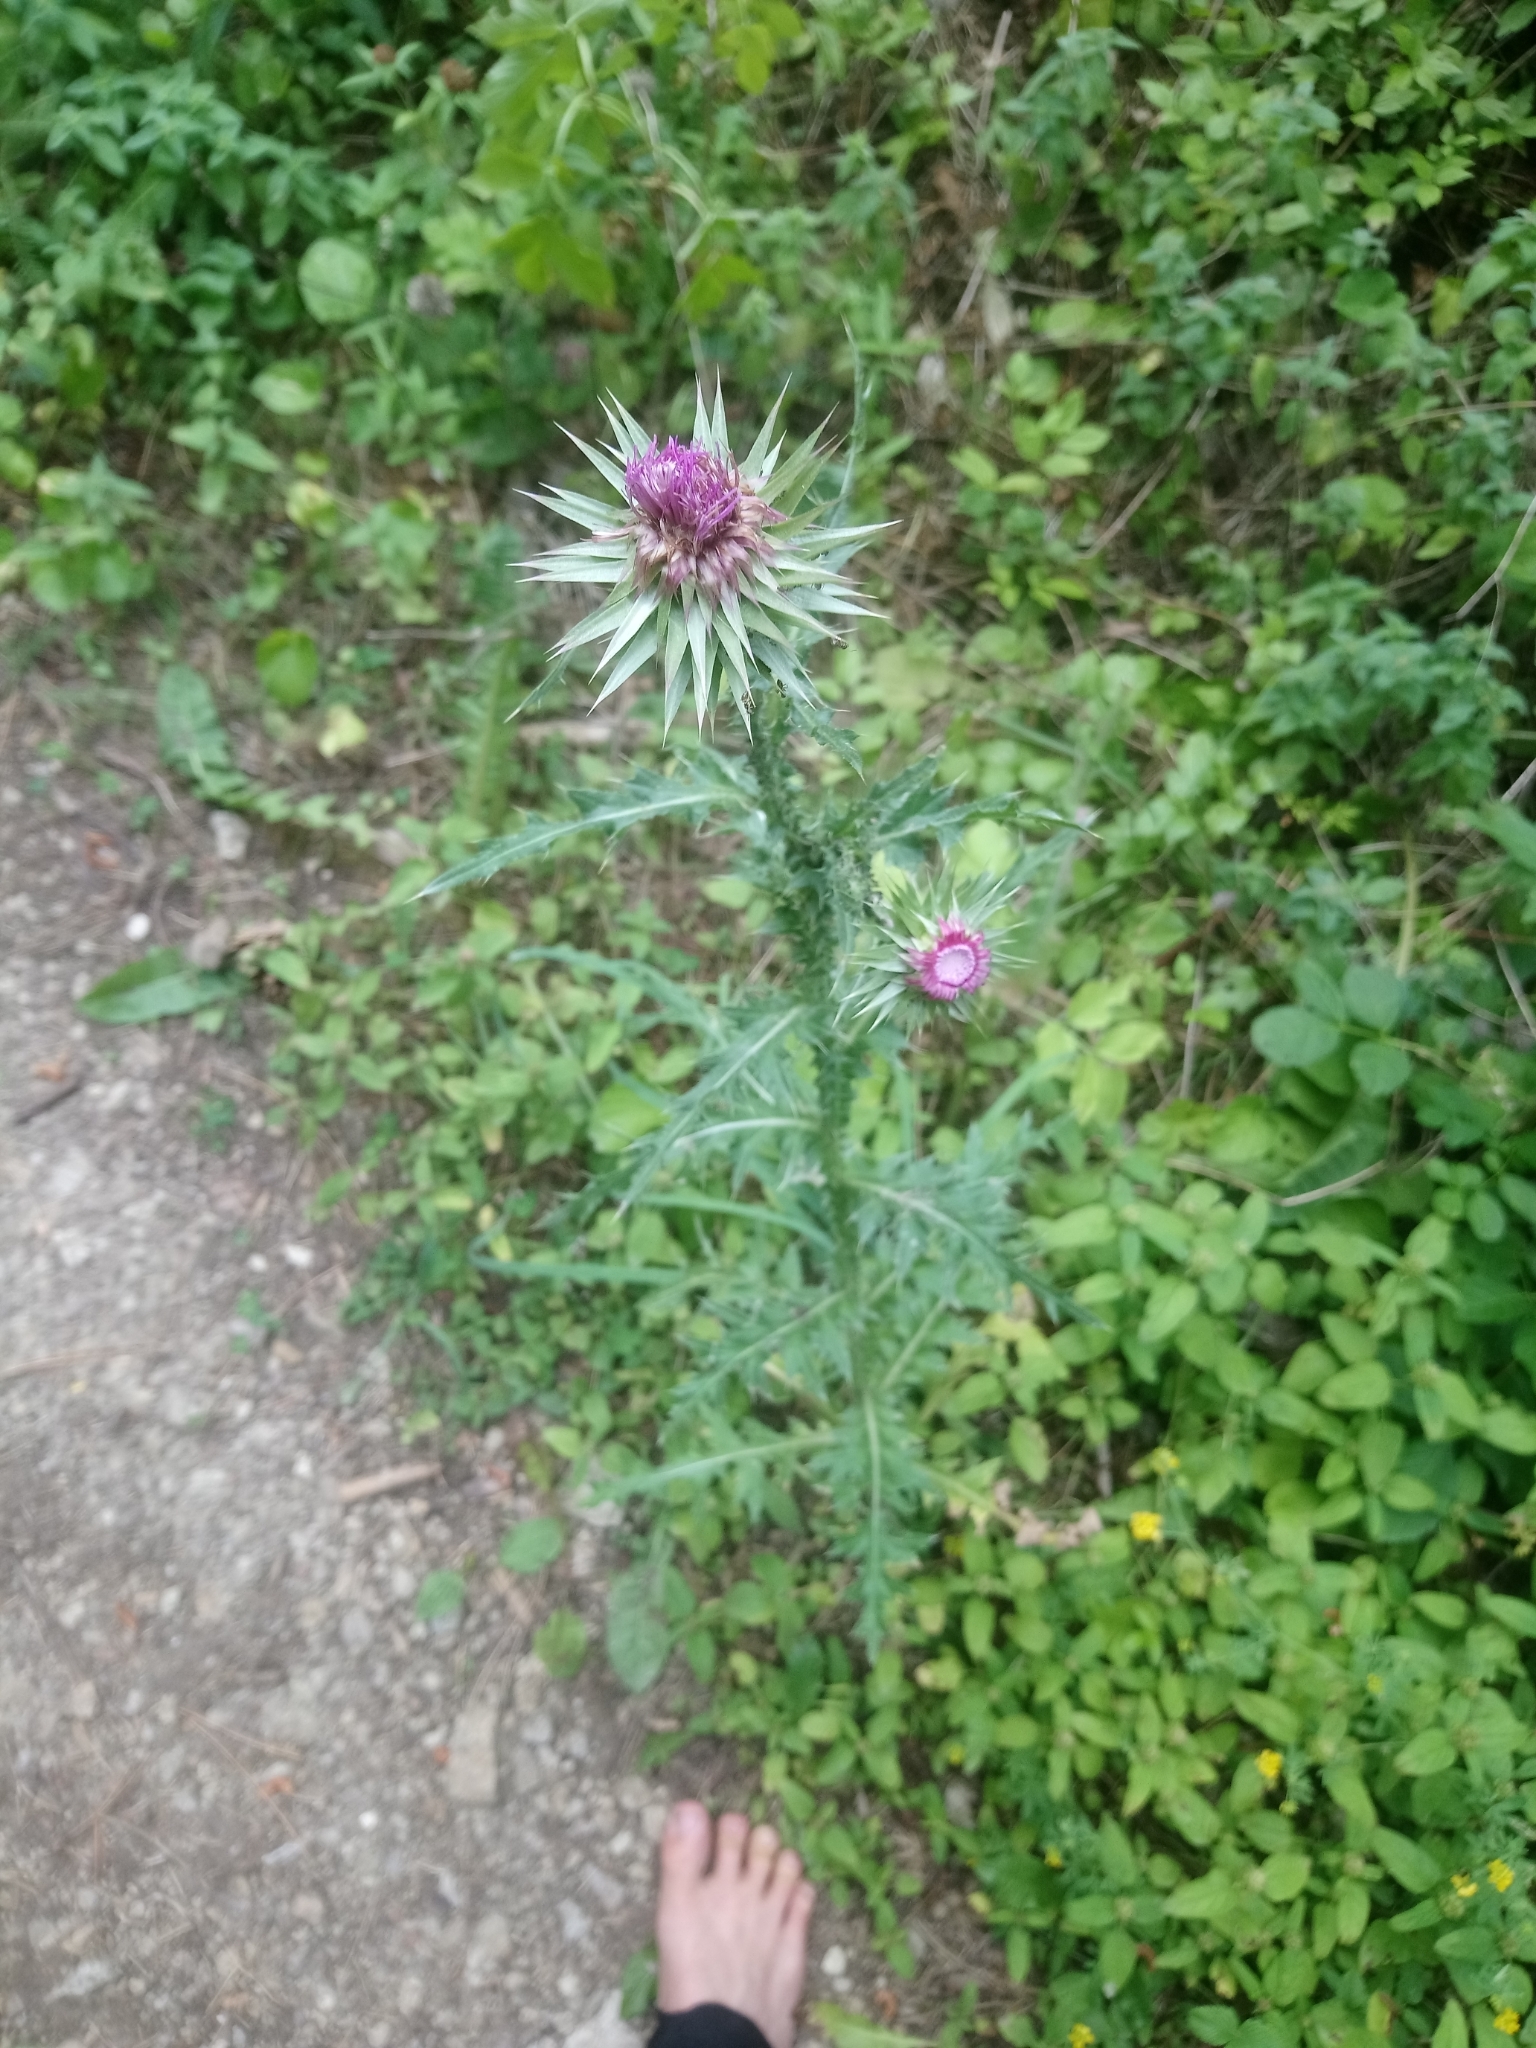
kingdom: Plantae
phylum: Tracheophyta
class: Magnoliopsida
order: Asterales
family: Asteraceae
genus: Carduus
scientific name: Carduus nutans
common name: Musk thistle
